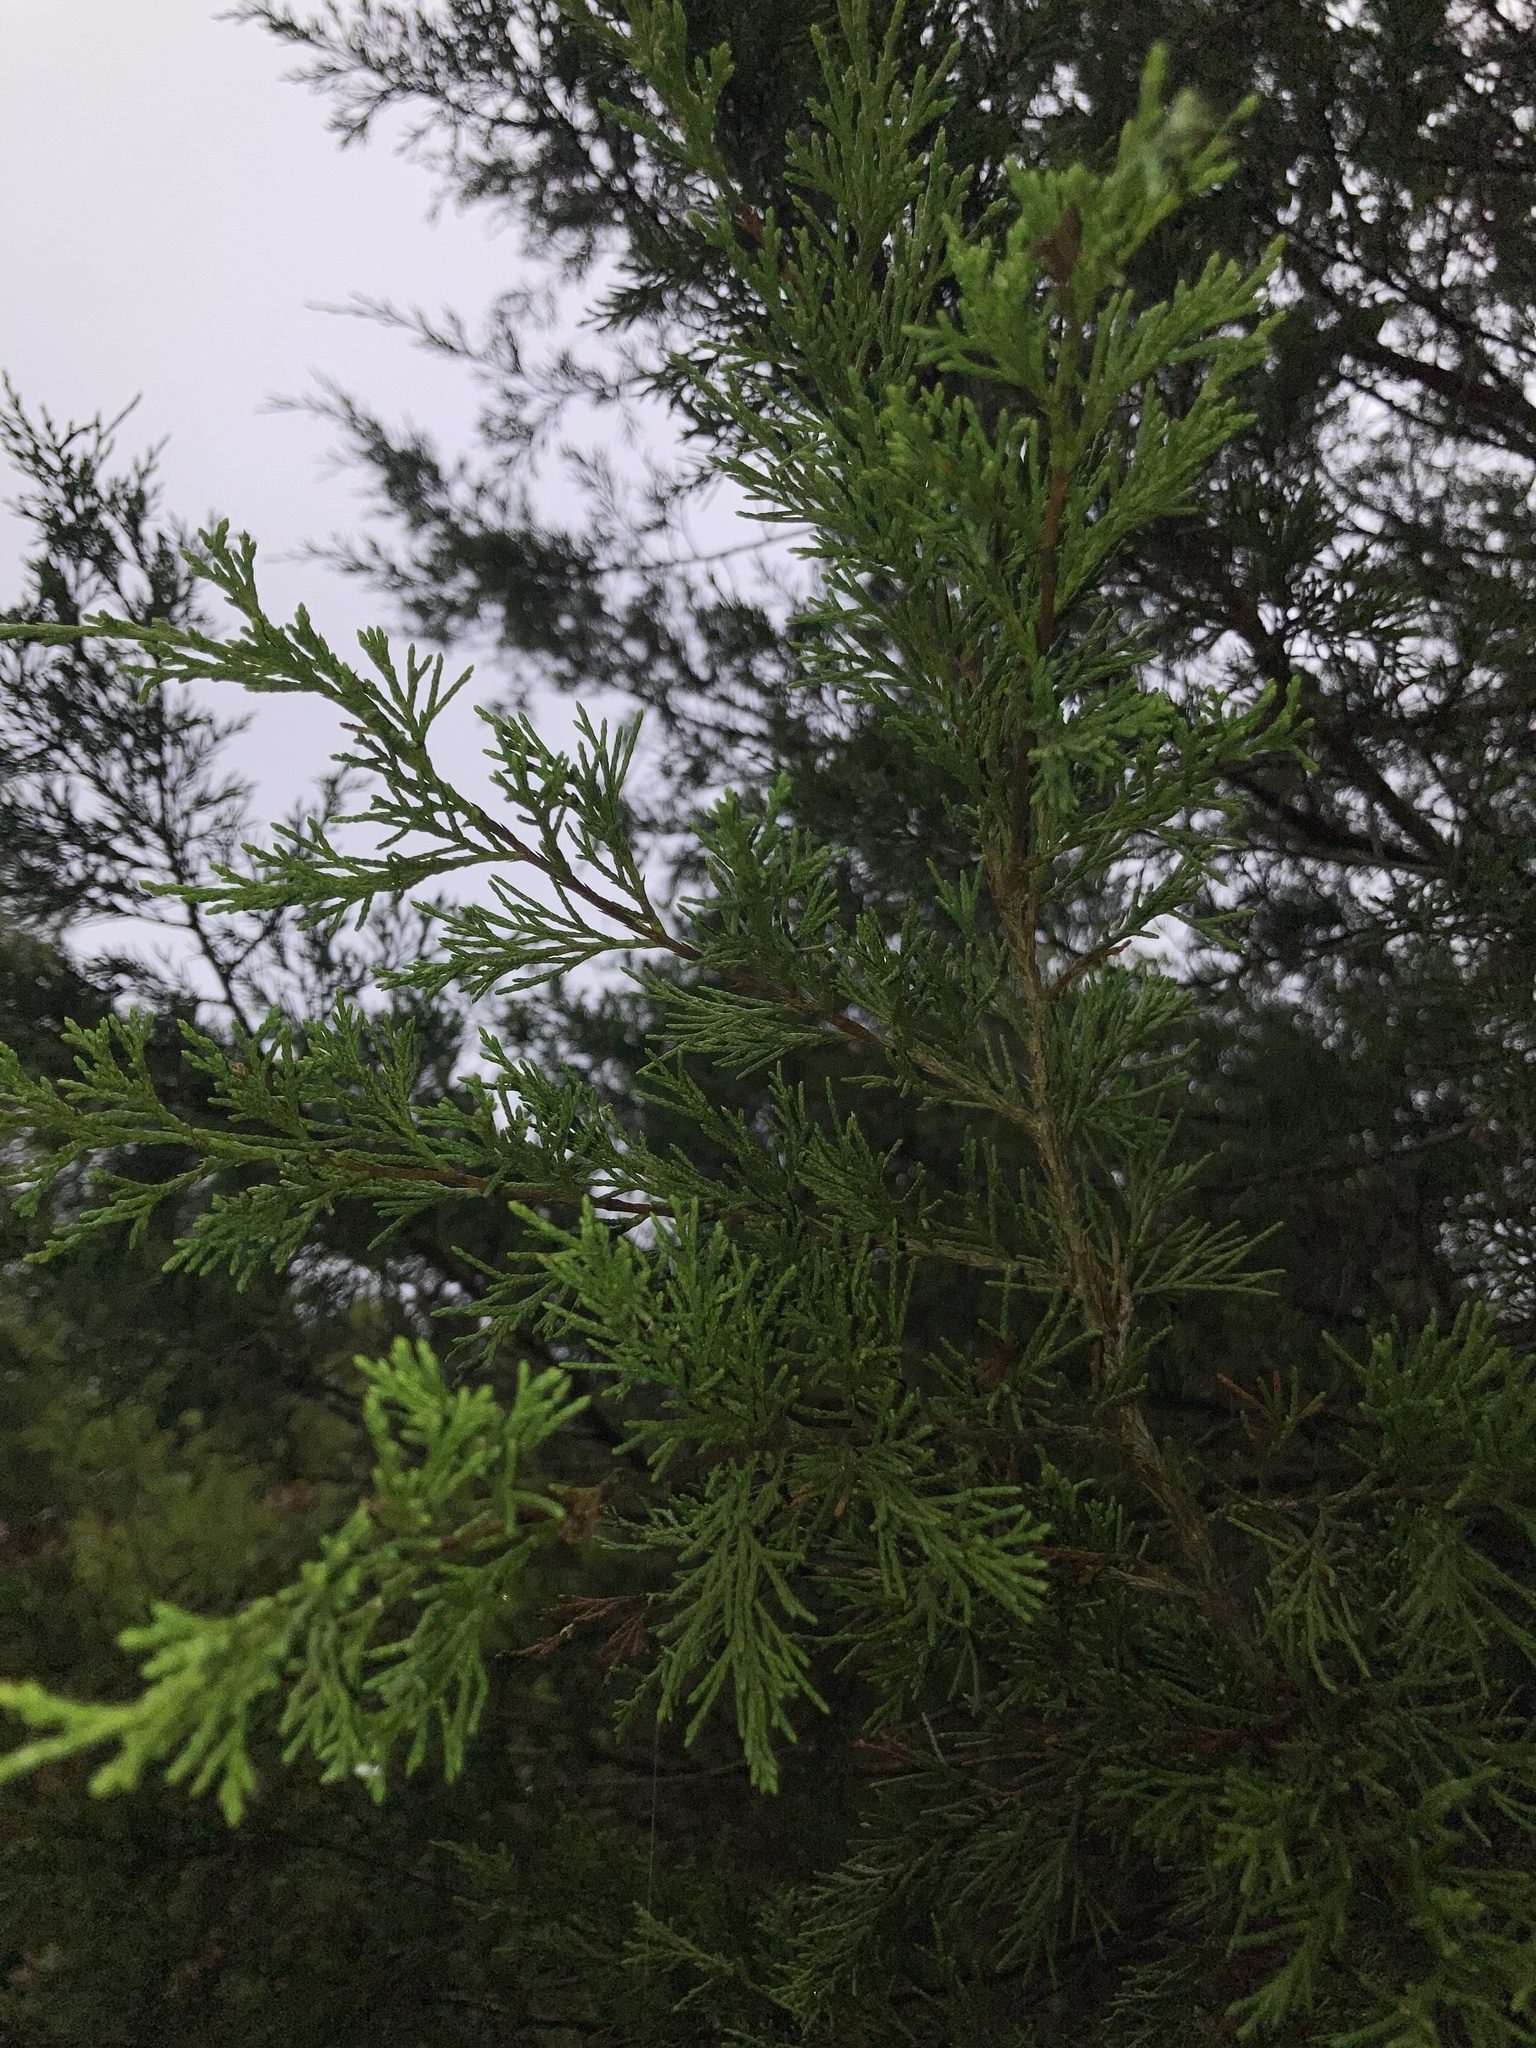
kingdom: Plantae
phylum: Tracheophyta
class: Pinopsida
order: Pinales
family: Cupressaceae
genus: Juniperus
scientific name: Juniperus virginiana
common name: Red juniper
